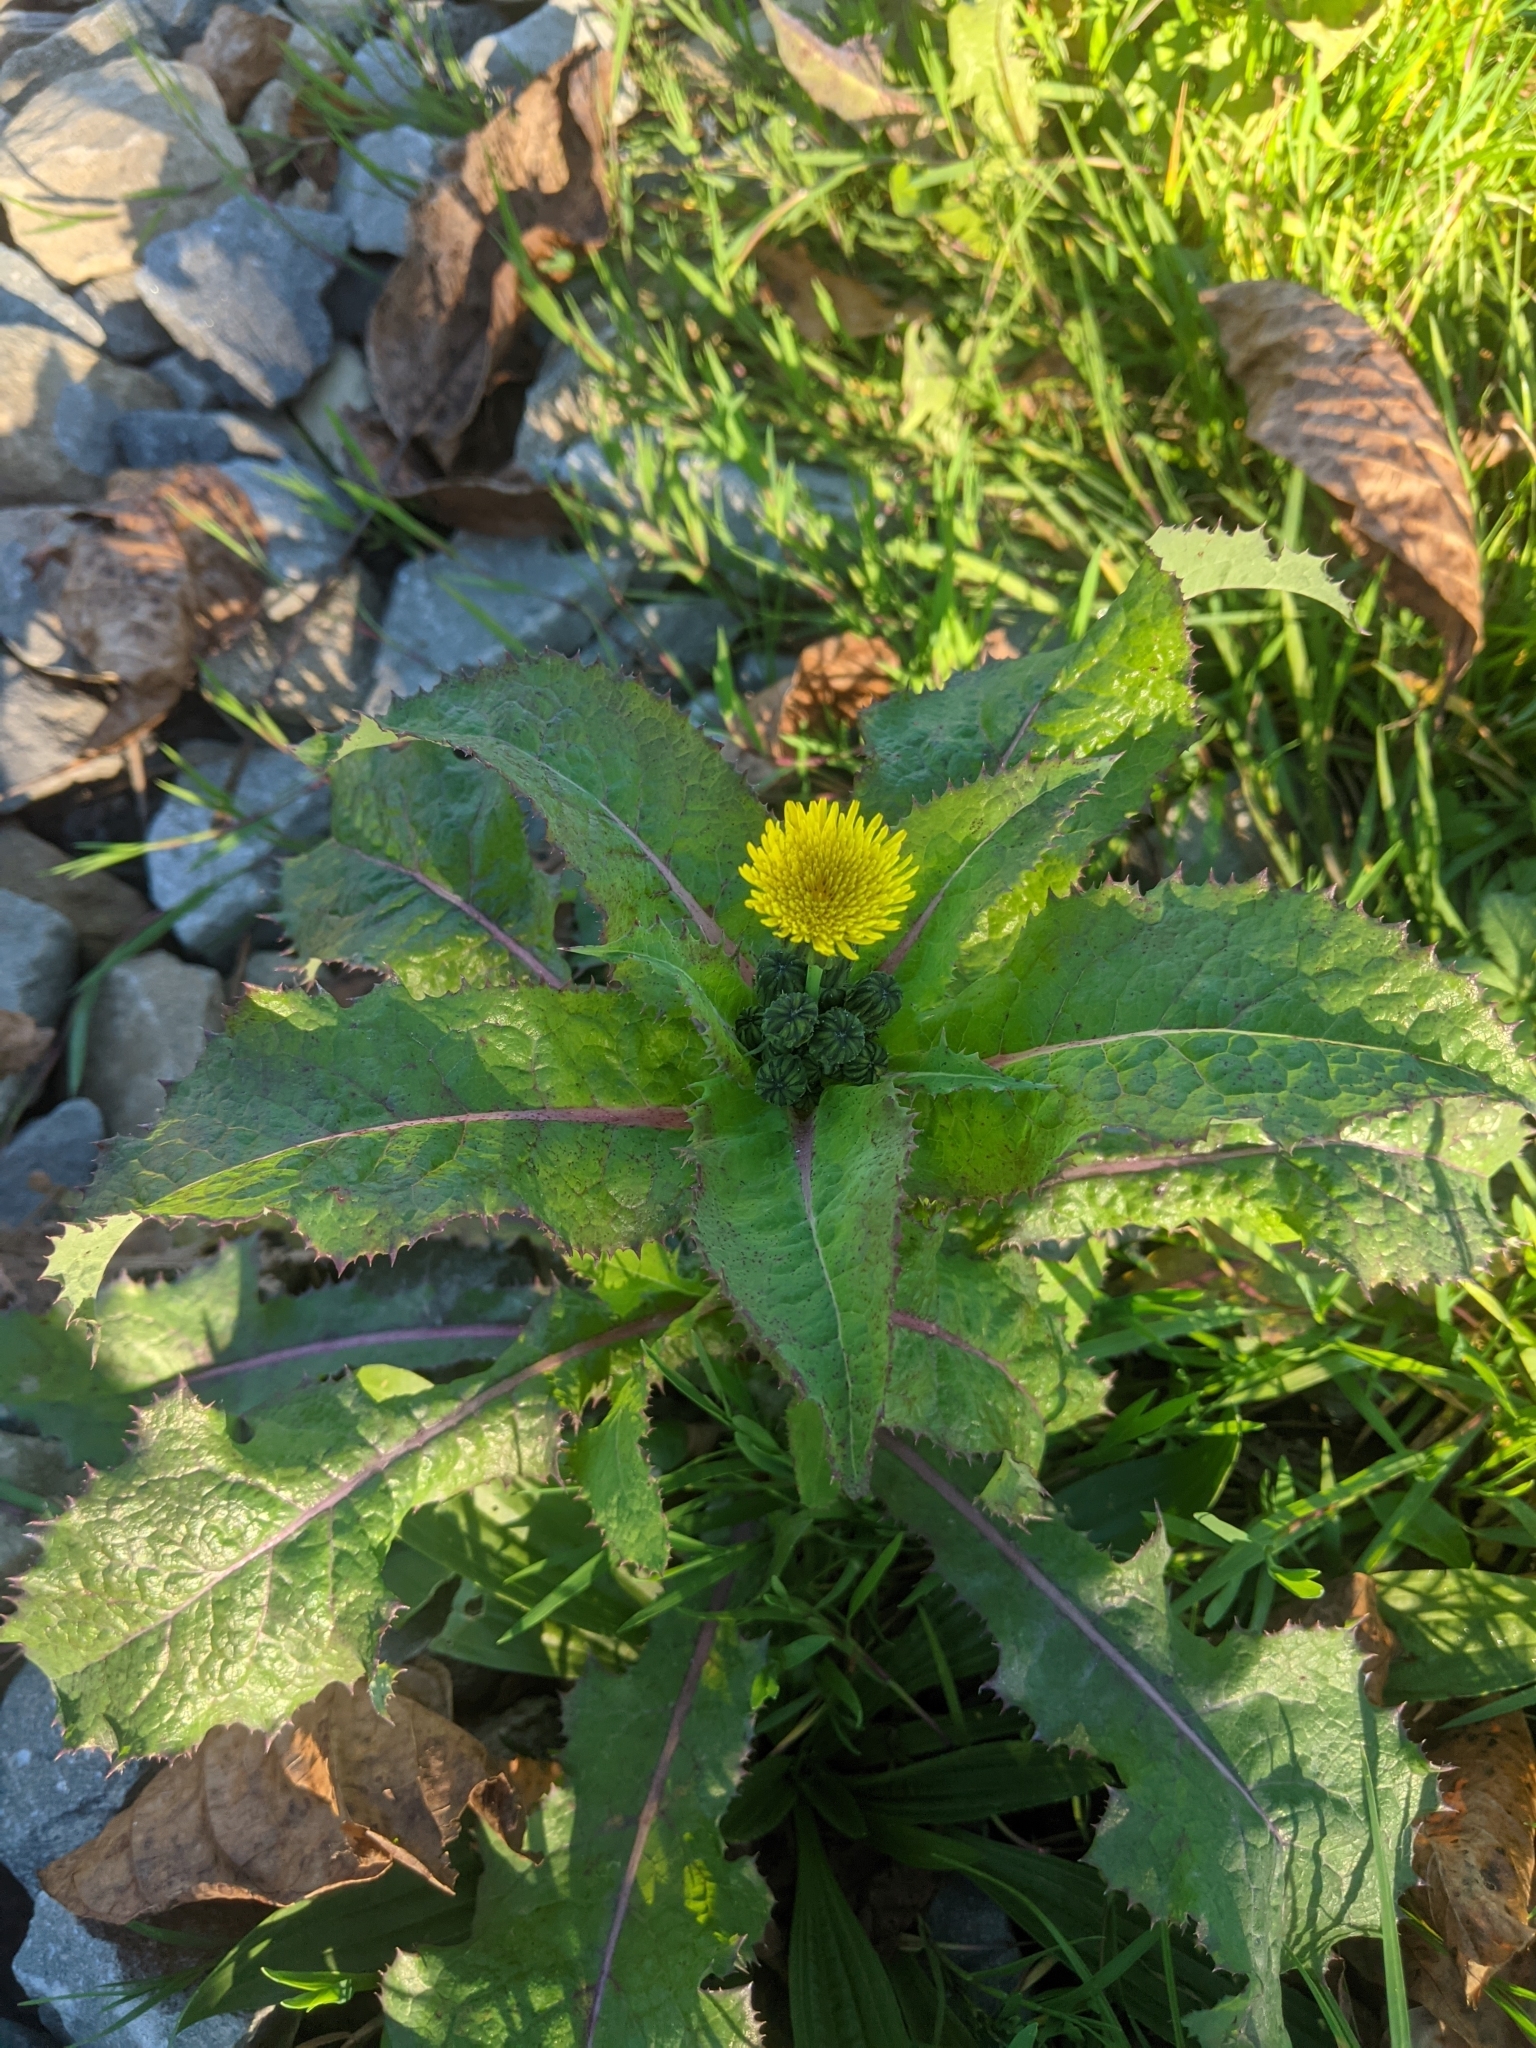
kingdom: Plantae
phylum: Tracheophyta
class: Magnoliopsida
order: Asterales
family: Asteraceae
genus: Sonchus
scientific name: Sonchus asper
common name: Prickly sow-thistle
